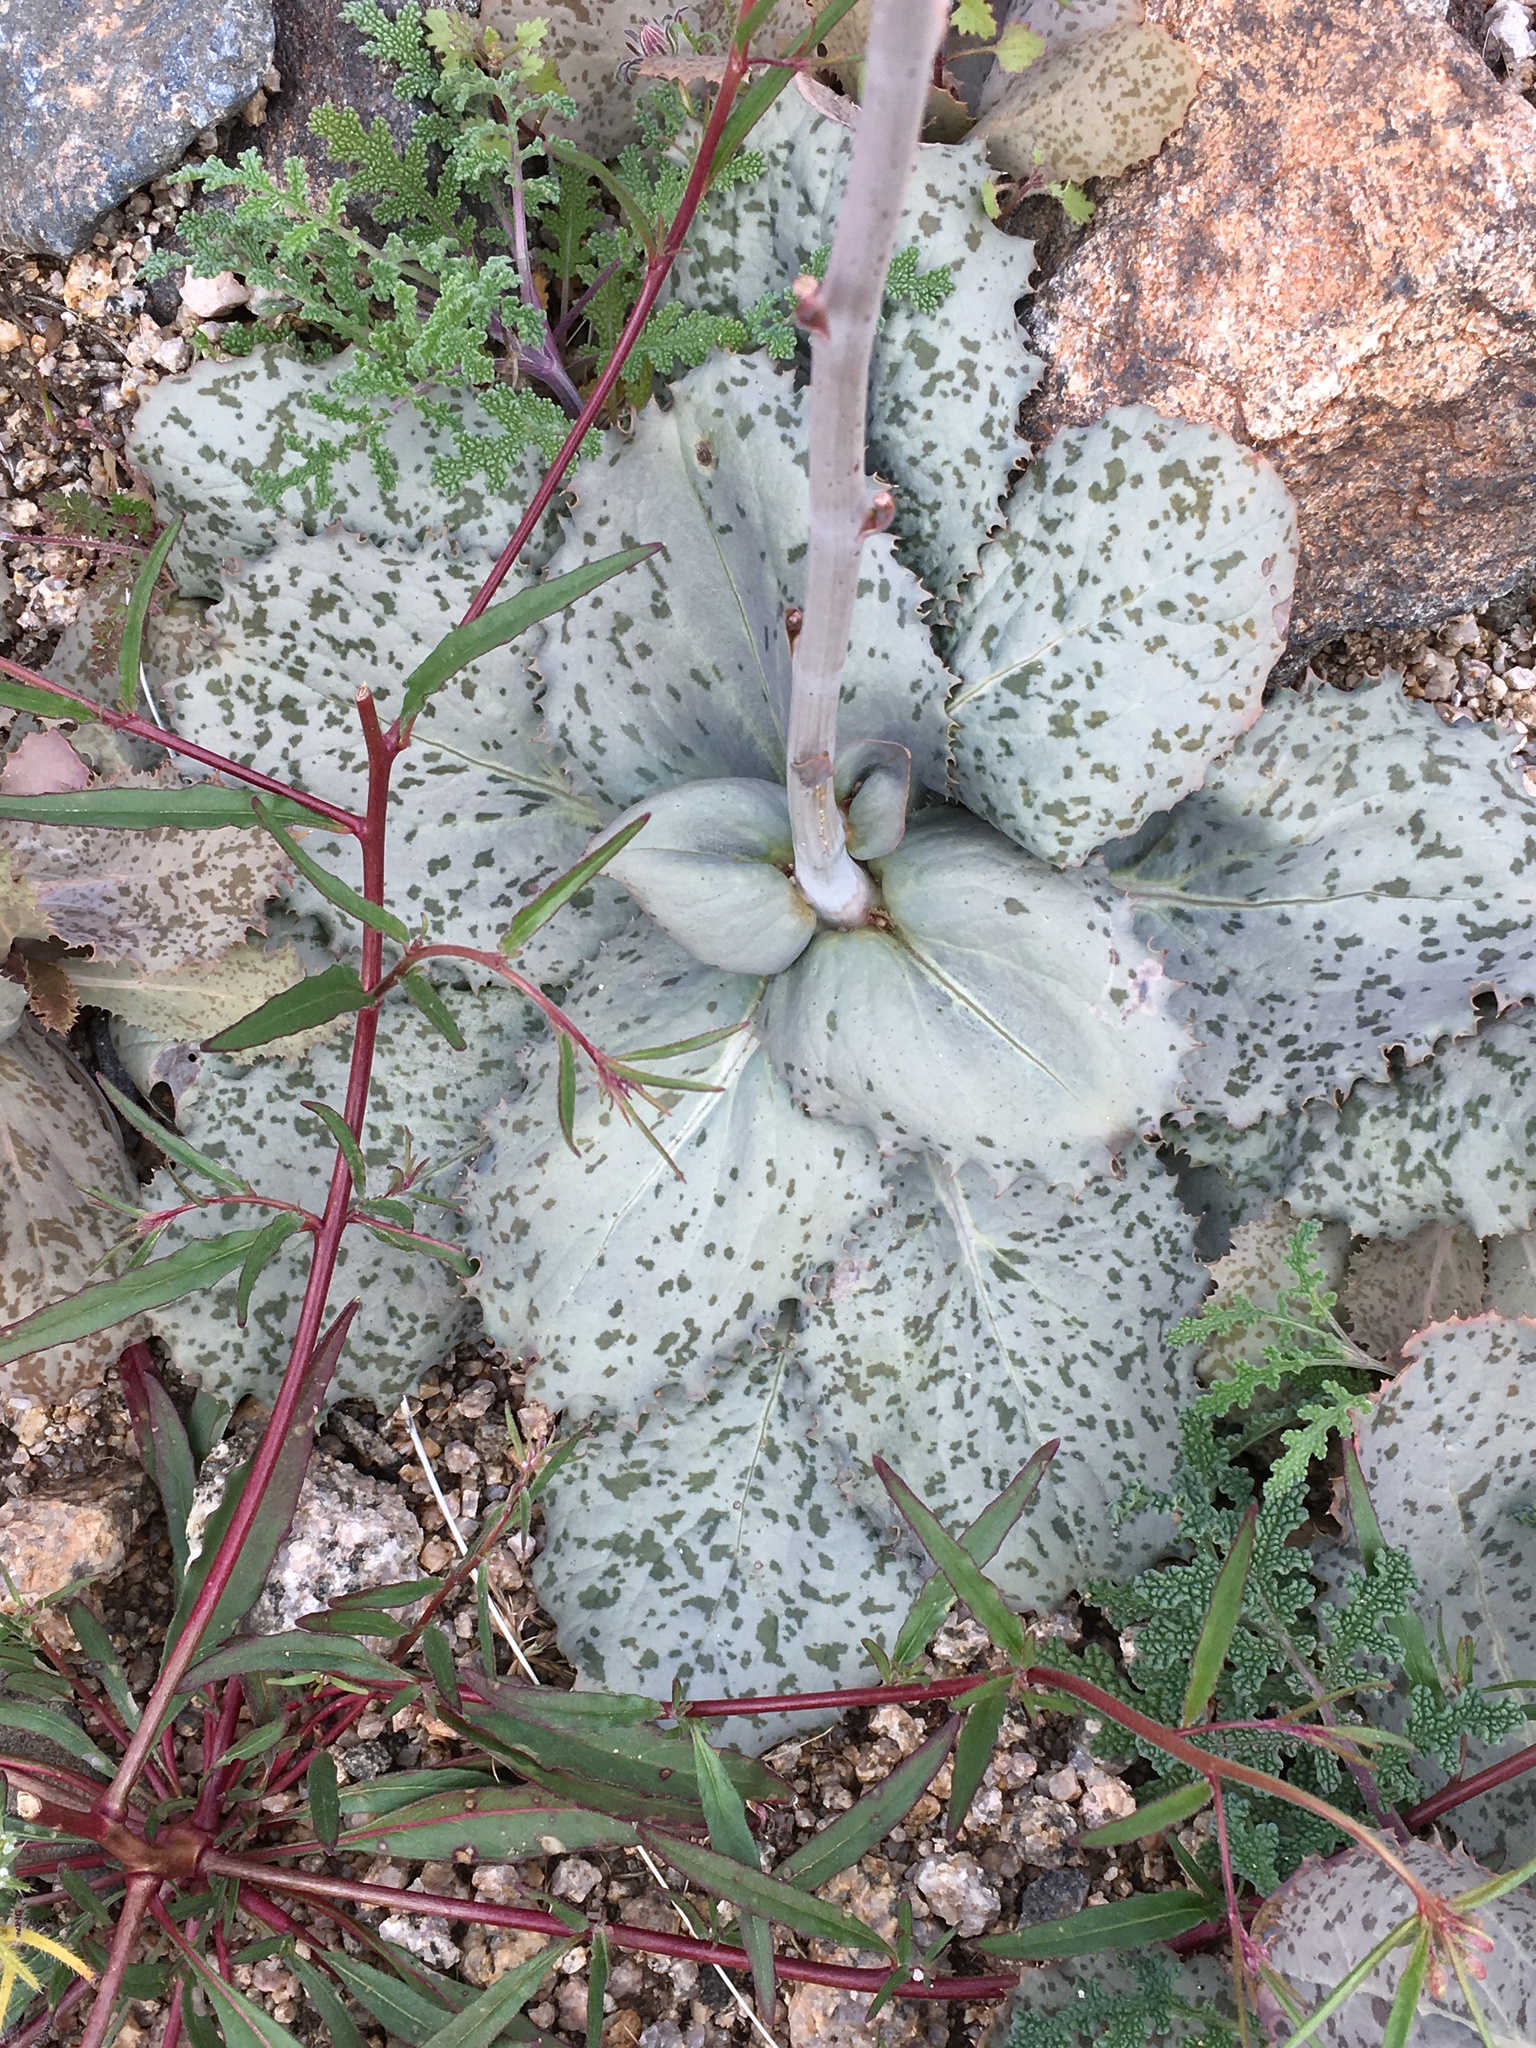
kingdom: Plantae
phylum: Tracheophyta
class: Magnoliopsida
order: Asterales
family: Asteraceae
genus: Atrichoseris
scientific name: Atrichoseris platyphylla
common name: Tobaccoweed
